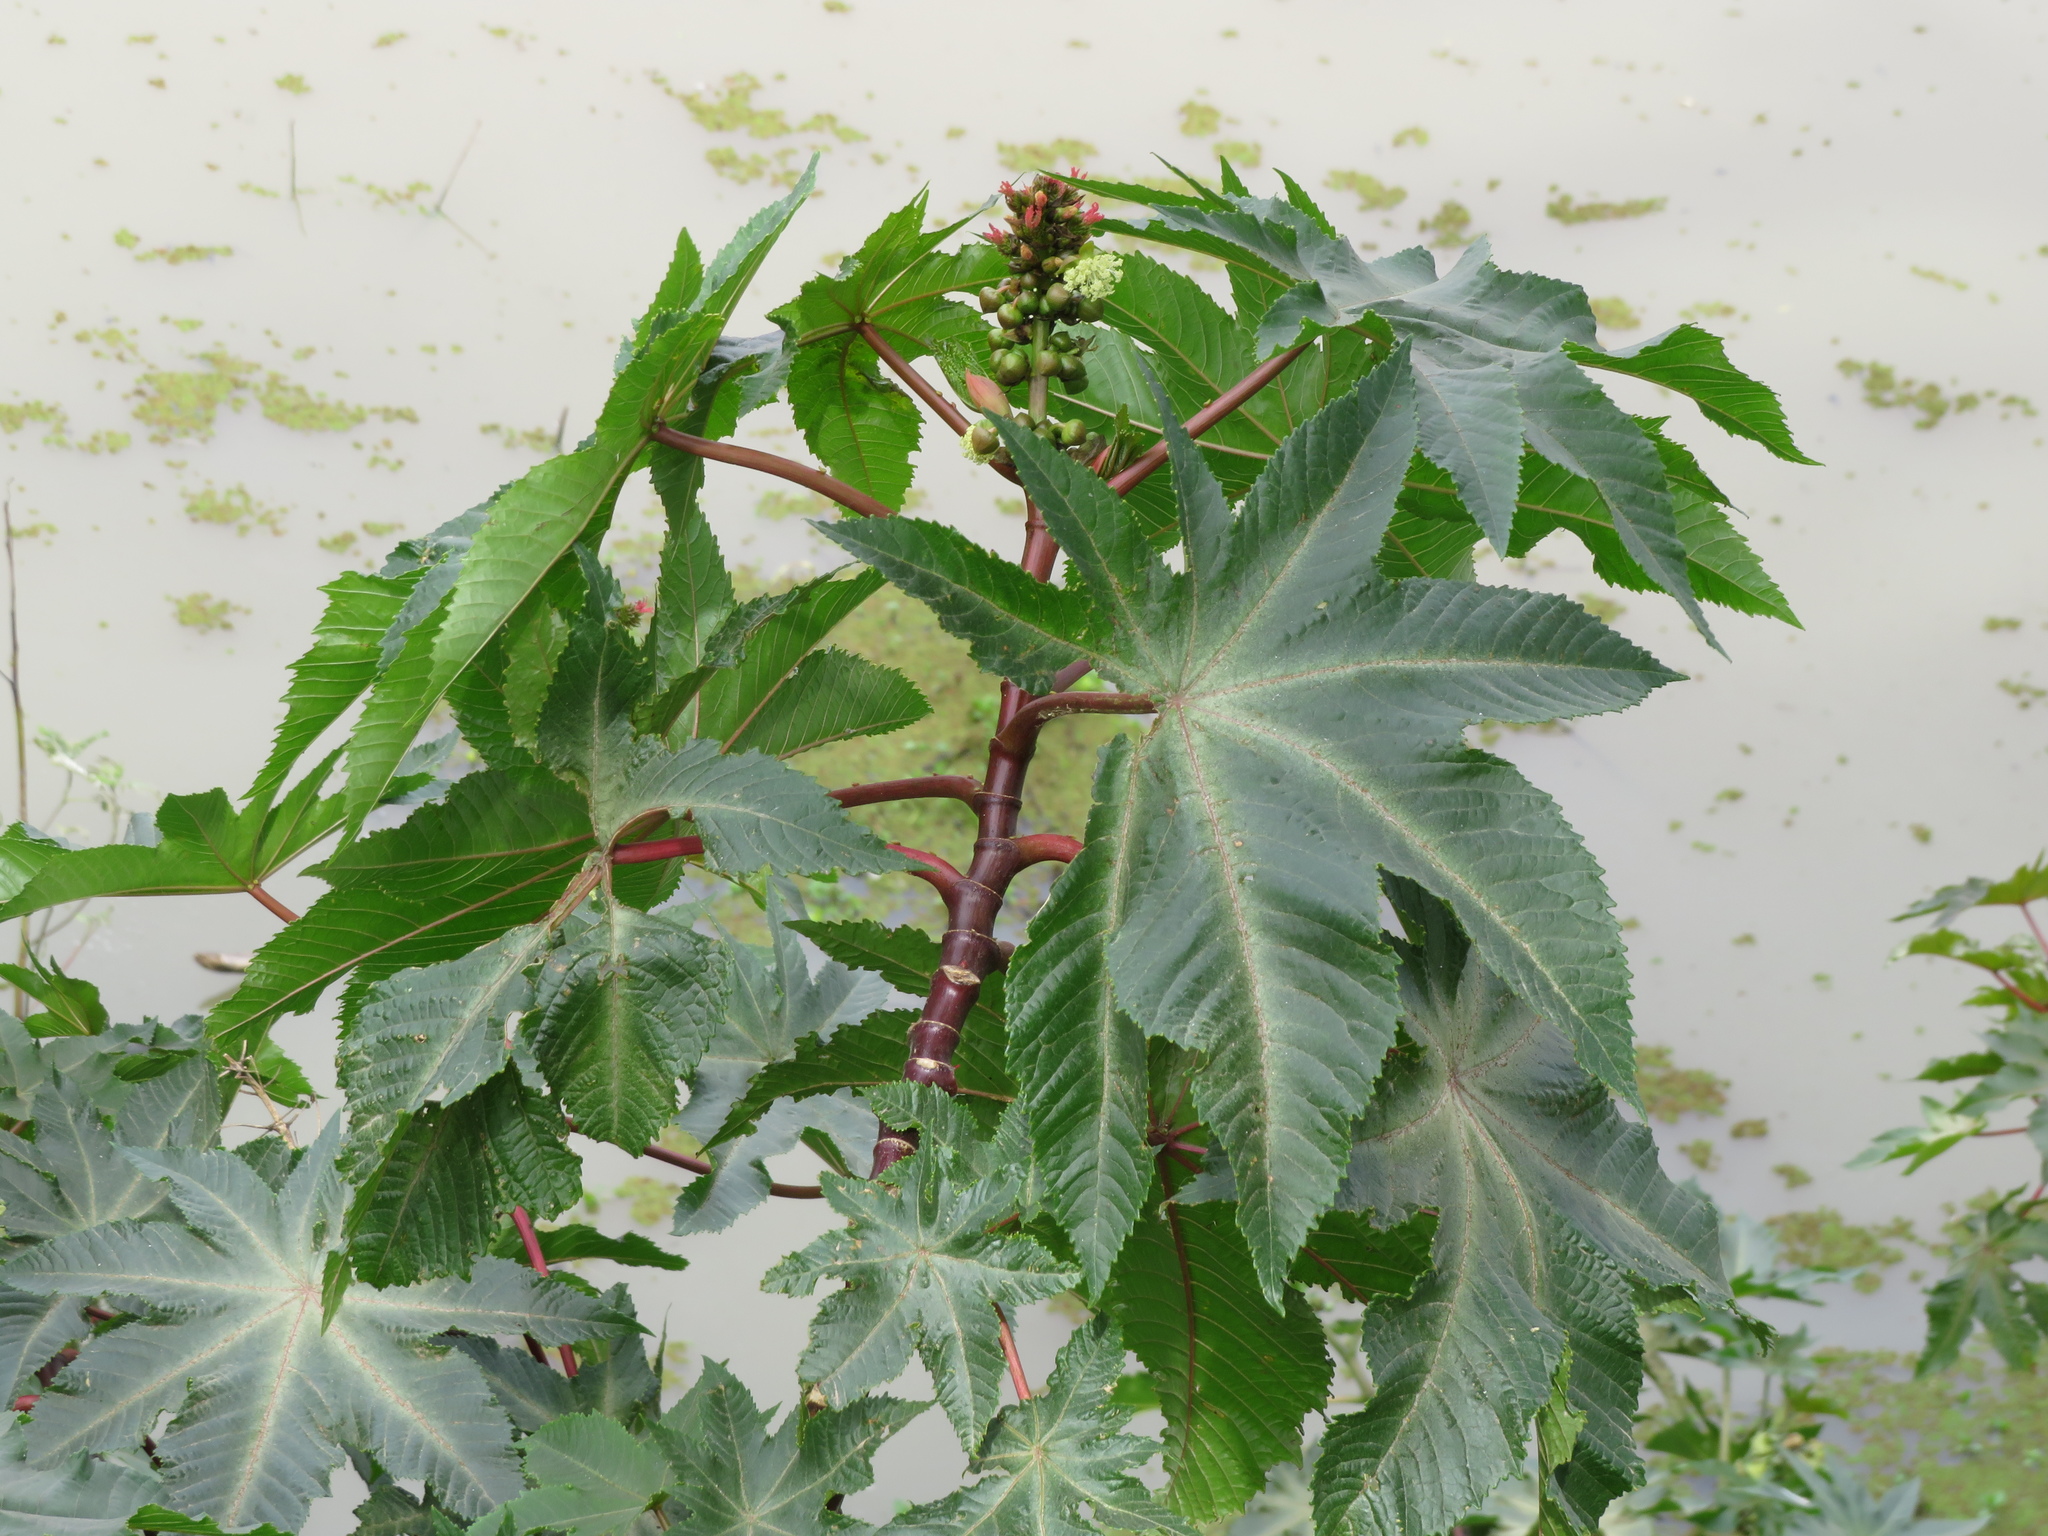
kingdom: Plantae
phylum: Tracheophyta
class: Magnoliopsida
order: Malpighiales
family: Euphorbiaceae
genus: Ricinus
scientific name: Ricinus communis
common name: Castor-oil-plant
